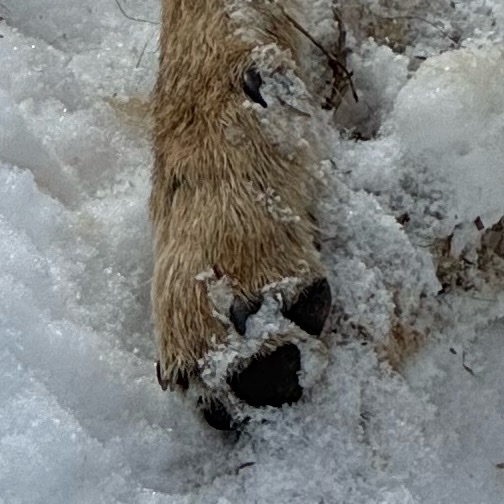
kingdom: Animalia
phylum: Chordata
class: Mammalia
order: Carnivora
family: Canidae
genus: Canis
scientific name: Canis latrans
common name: Coyote
